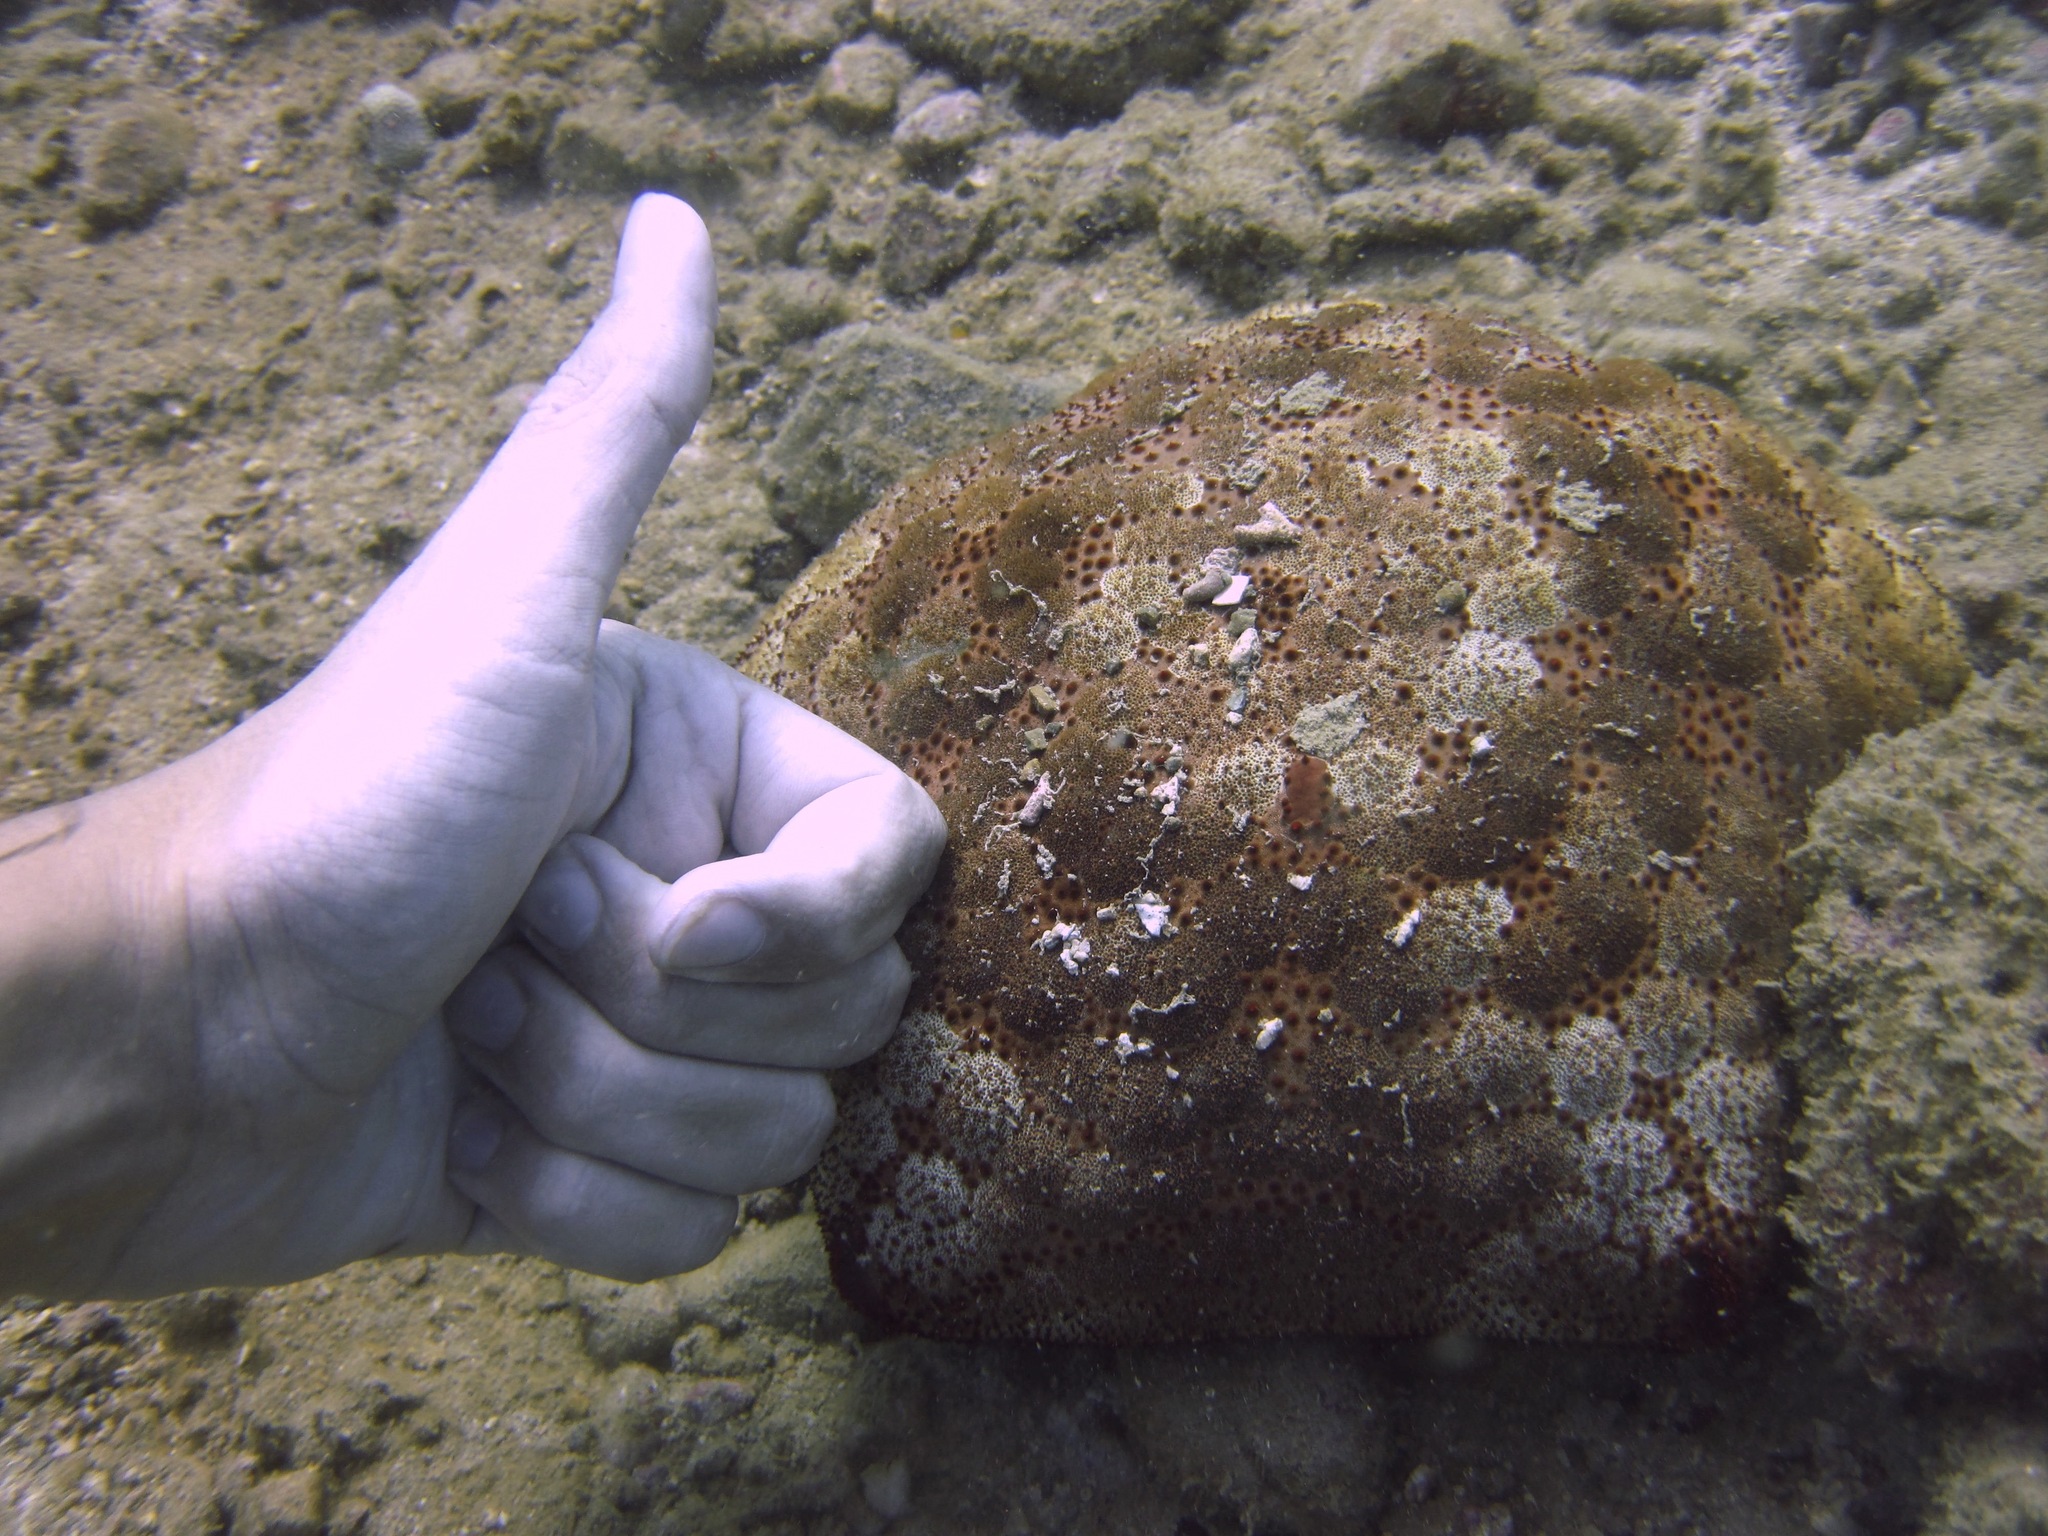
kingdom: Animalia
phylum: Echinodermata
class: Asteroidea
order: Valvatida
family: Oreasteridae
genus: Culcita
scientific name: Culcita novaeguineae
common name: Cushion star
